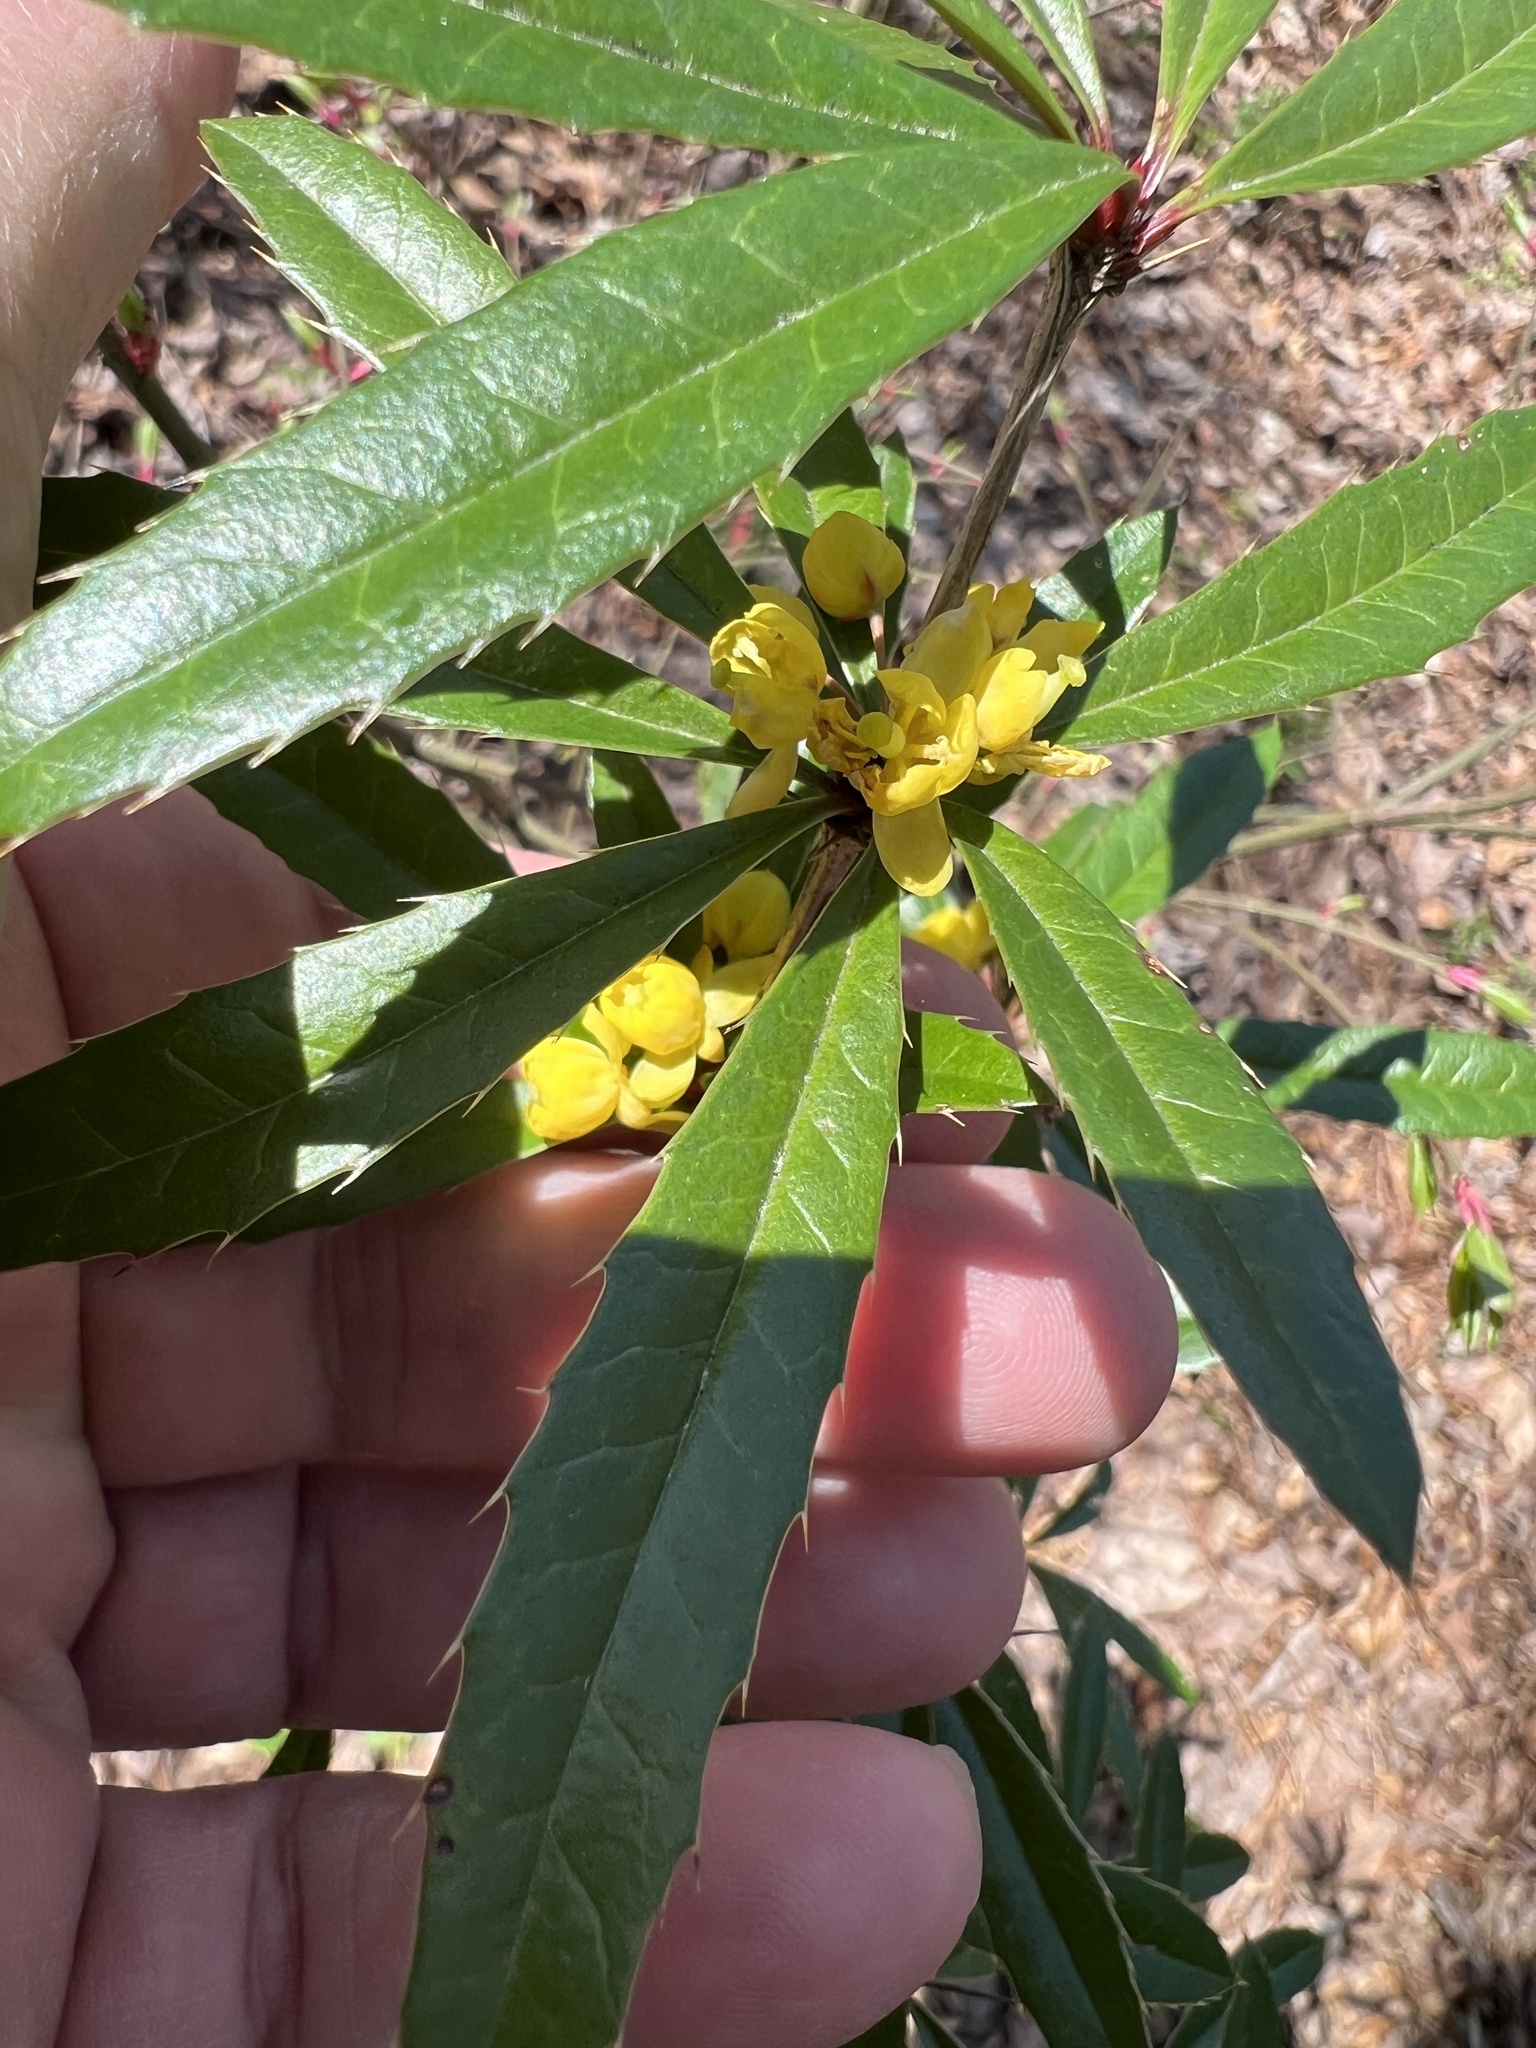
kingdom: Plantae
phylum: Tracheophyta
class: Magnoliopsida
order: Ranunculales
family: Berberidaceae
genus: Berberis
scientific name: Berberis julianae
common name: Wintergreen barberry
